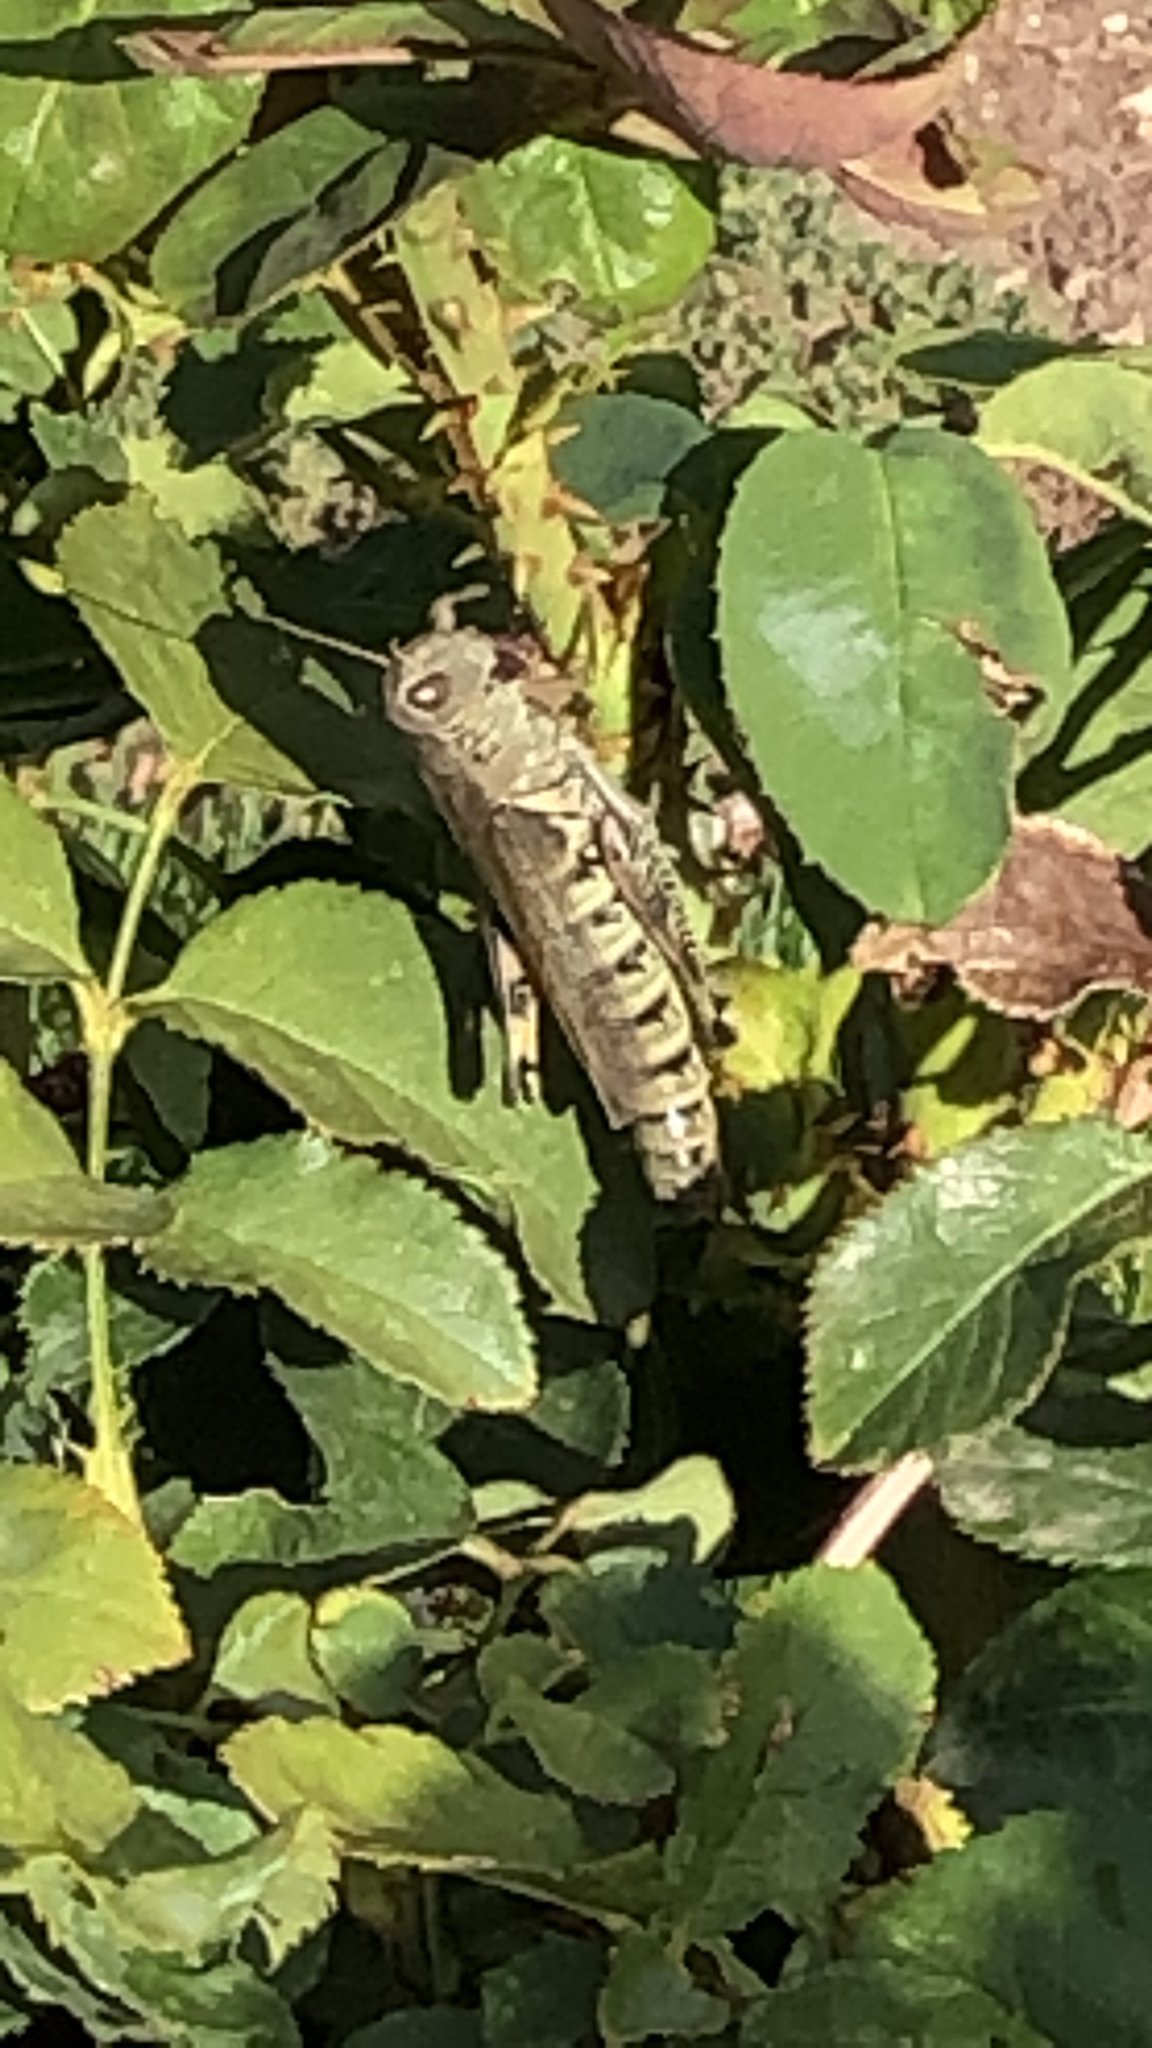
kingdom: Animalia
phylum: Arthropoda
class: Insecta
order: Orthoptera
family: Acrididae
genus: Melanoplus
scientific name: Melanoplus differentialis
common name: Differential grasshopper
